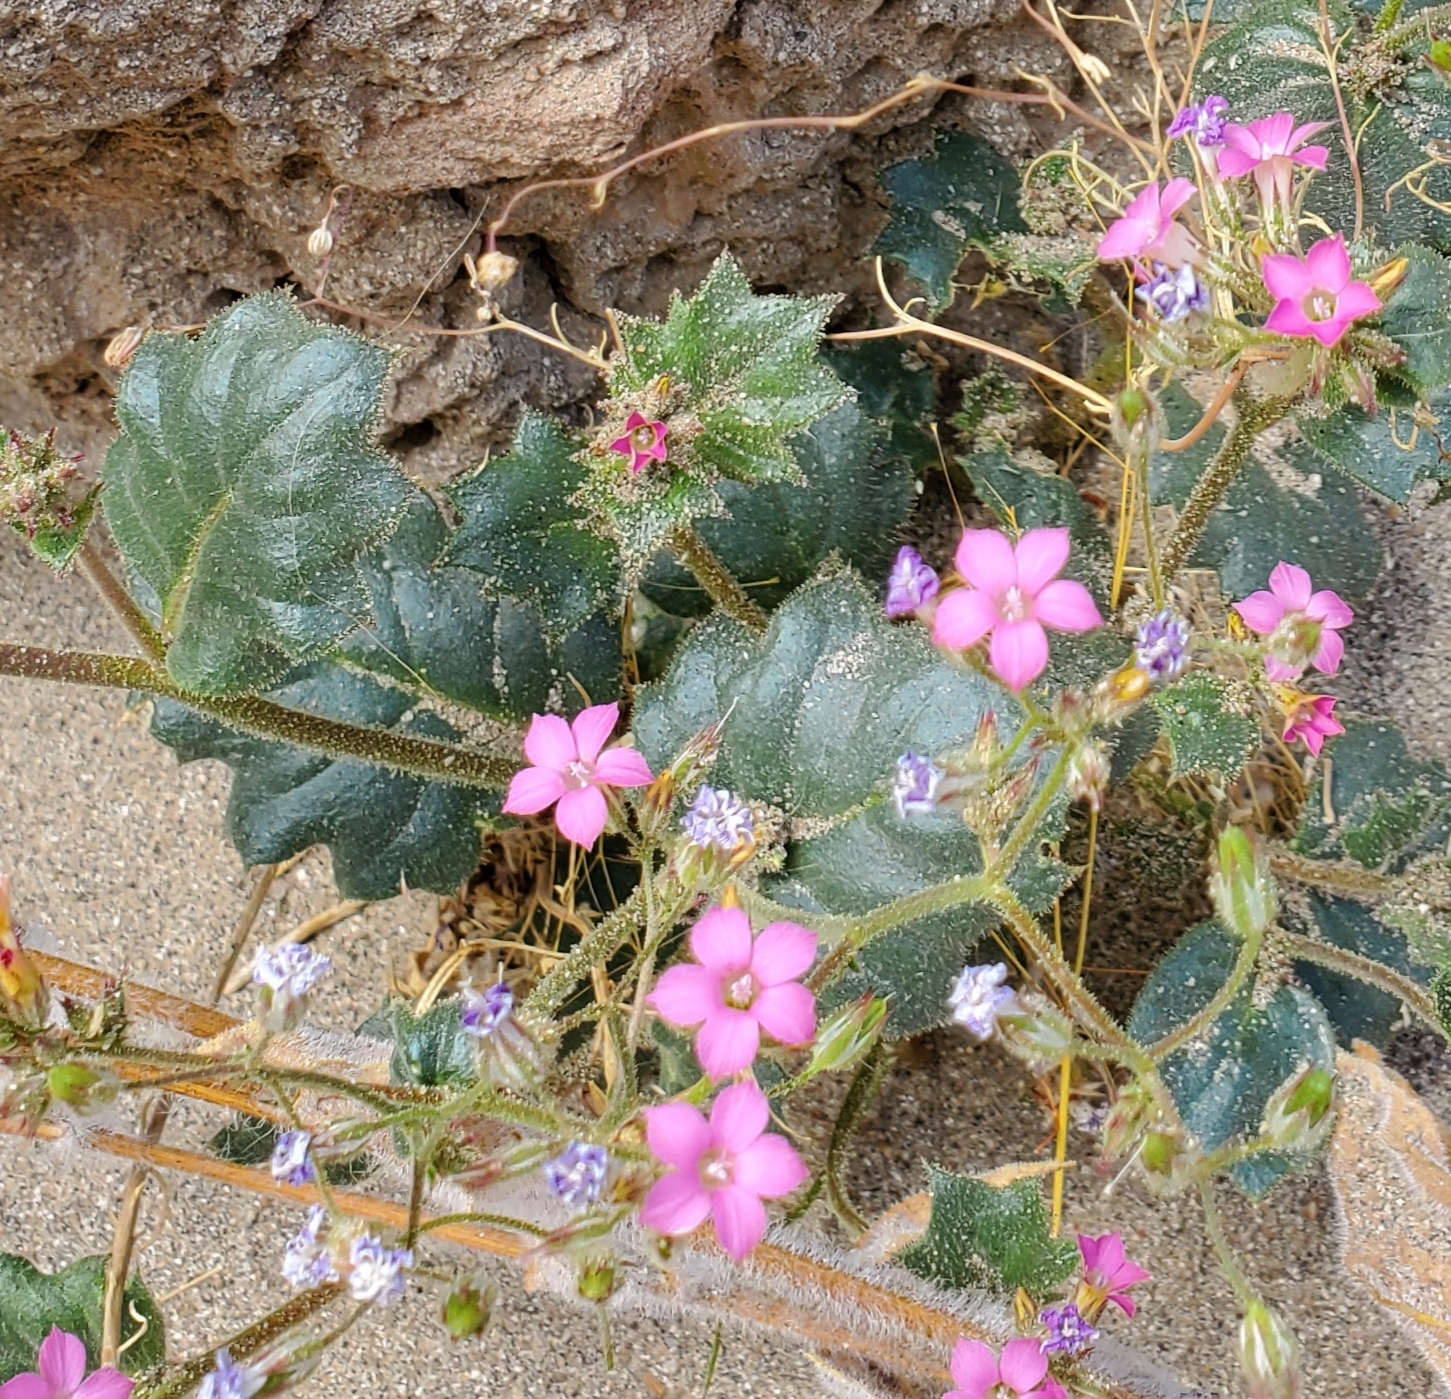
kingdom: Plantae
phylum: Tracheophyta
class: Magnoliopsida
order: Ericales
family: Polemoniaceae
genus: Aliciella
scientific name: Aliciella latifolia
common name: Broad-leaf gilia
